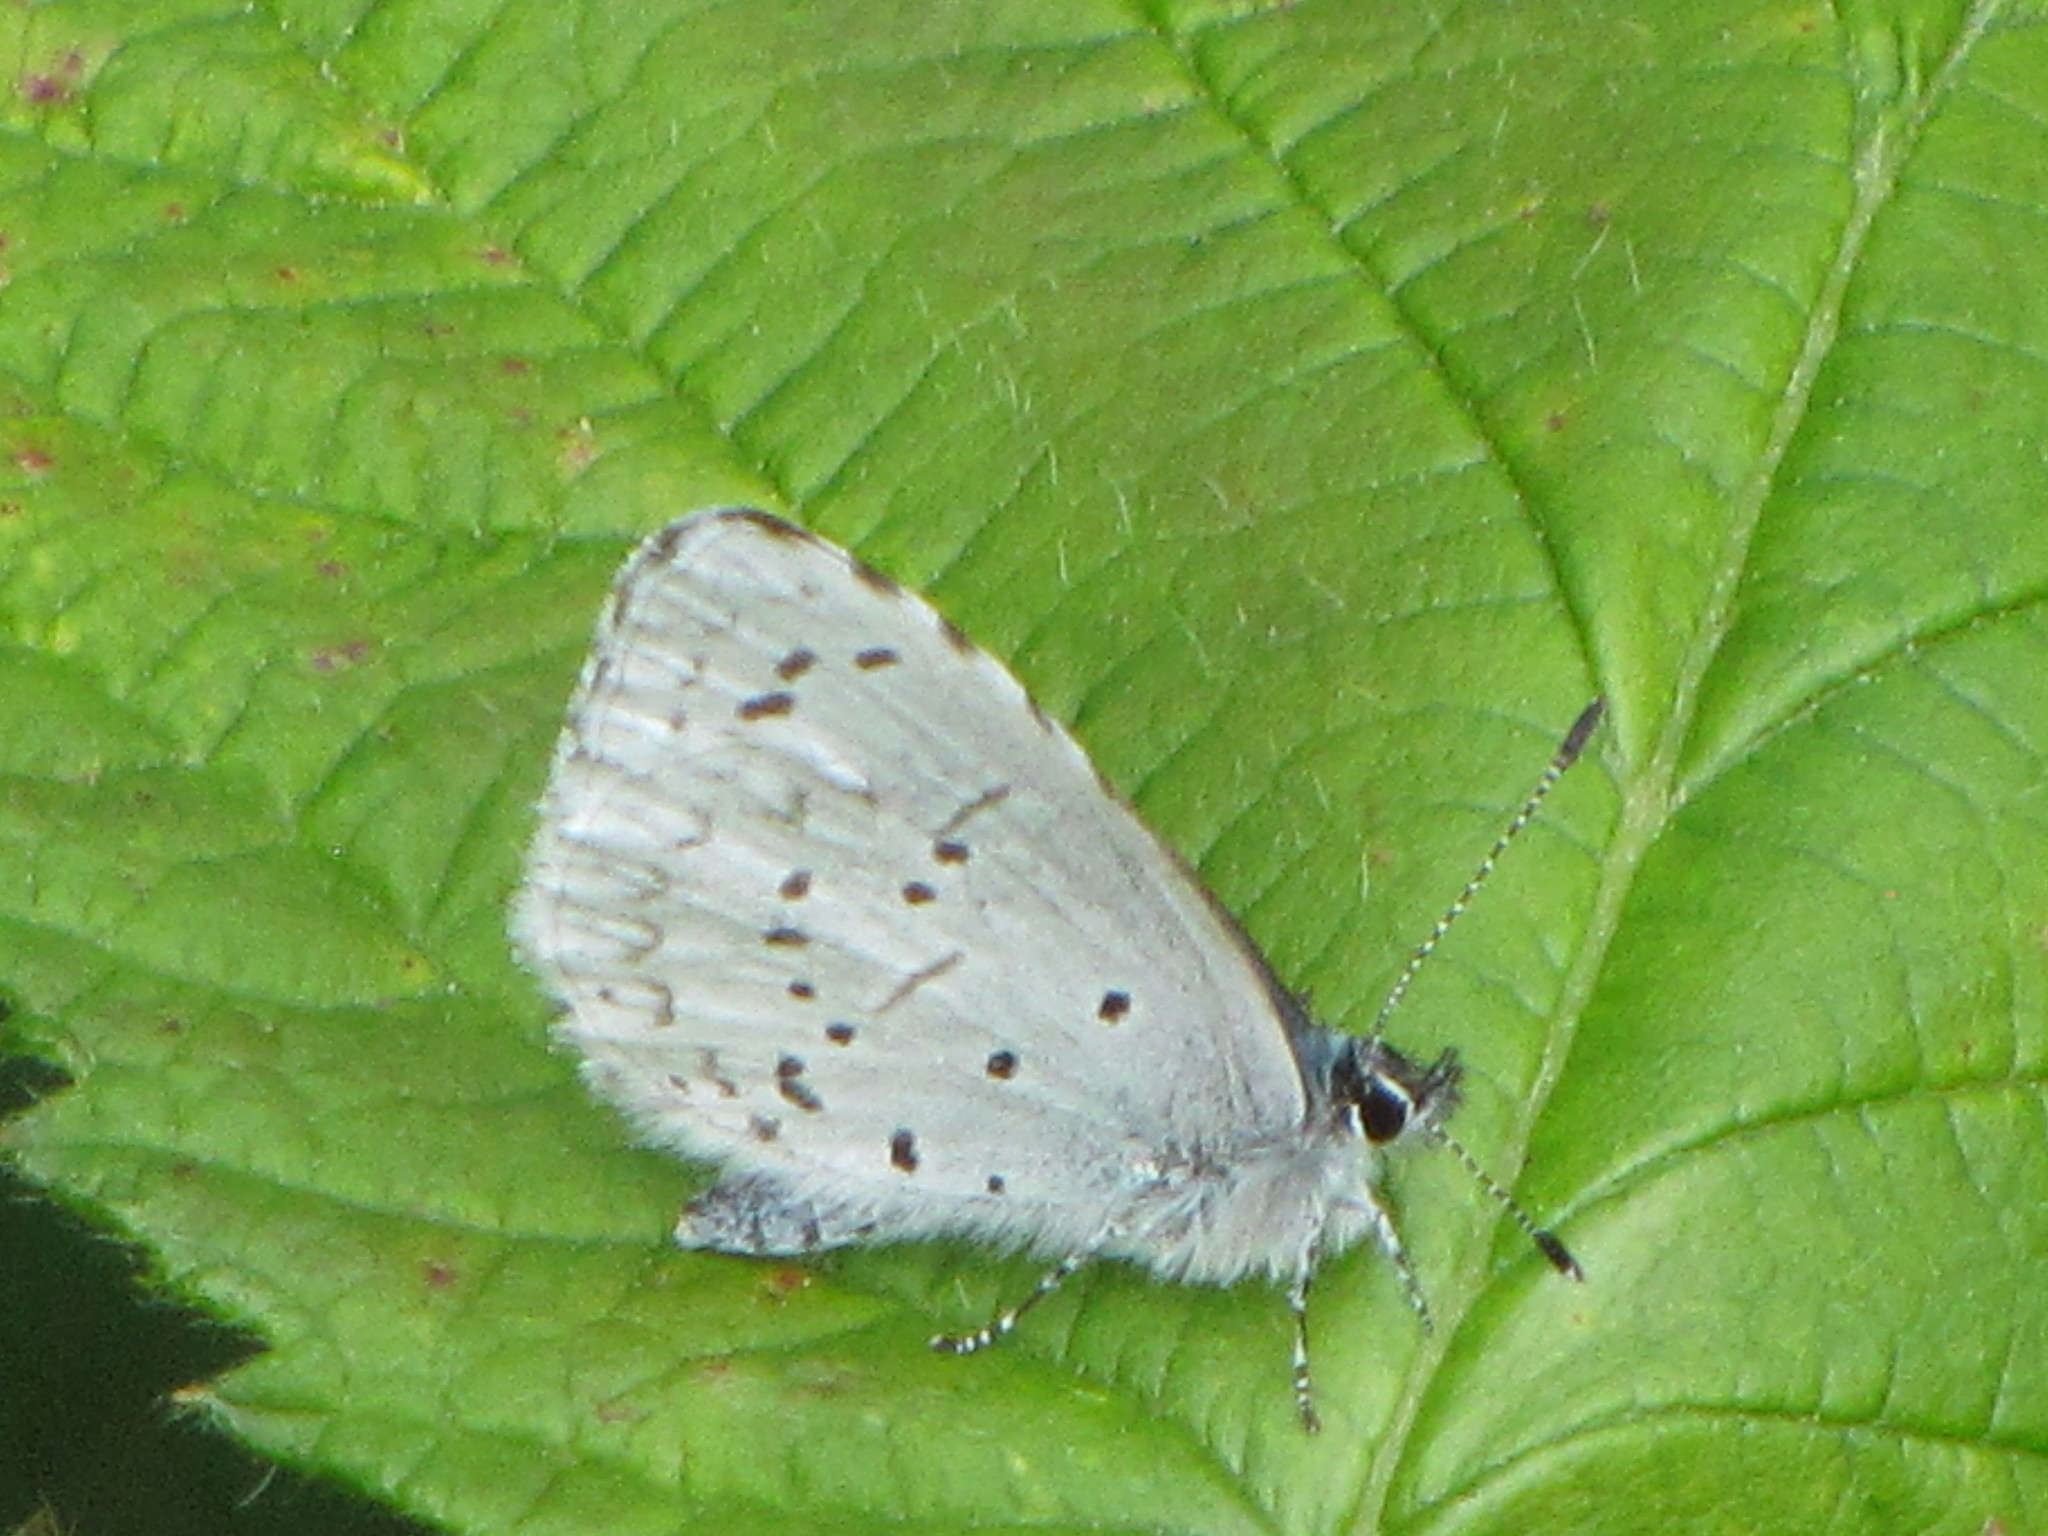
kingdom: Animalia
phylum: Arthropoda
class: Insecta
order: Lepidoptera
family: Lycaenidae
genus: Celastrina
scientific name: Celastrina ladon
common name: Spring azure
